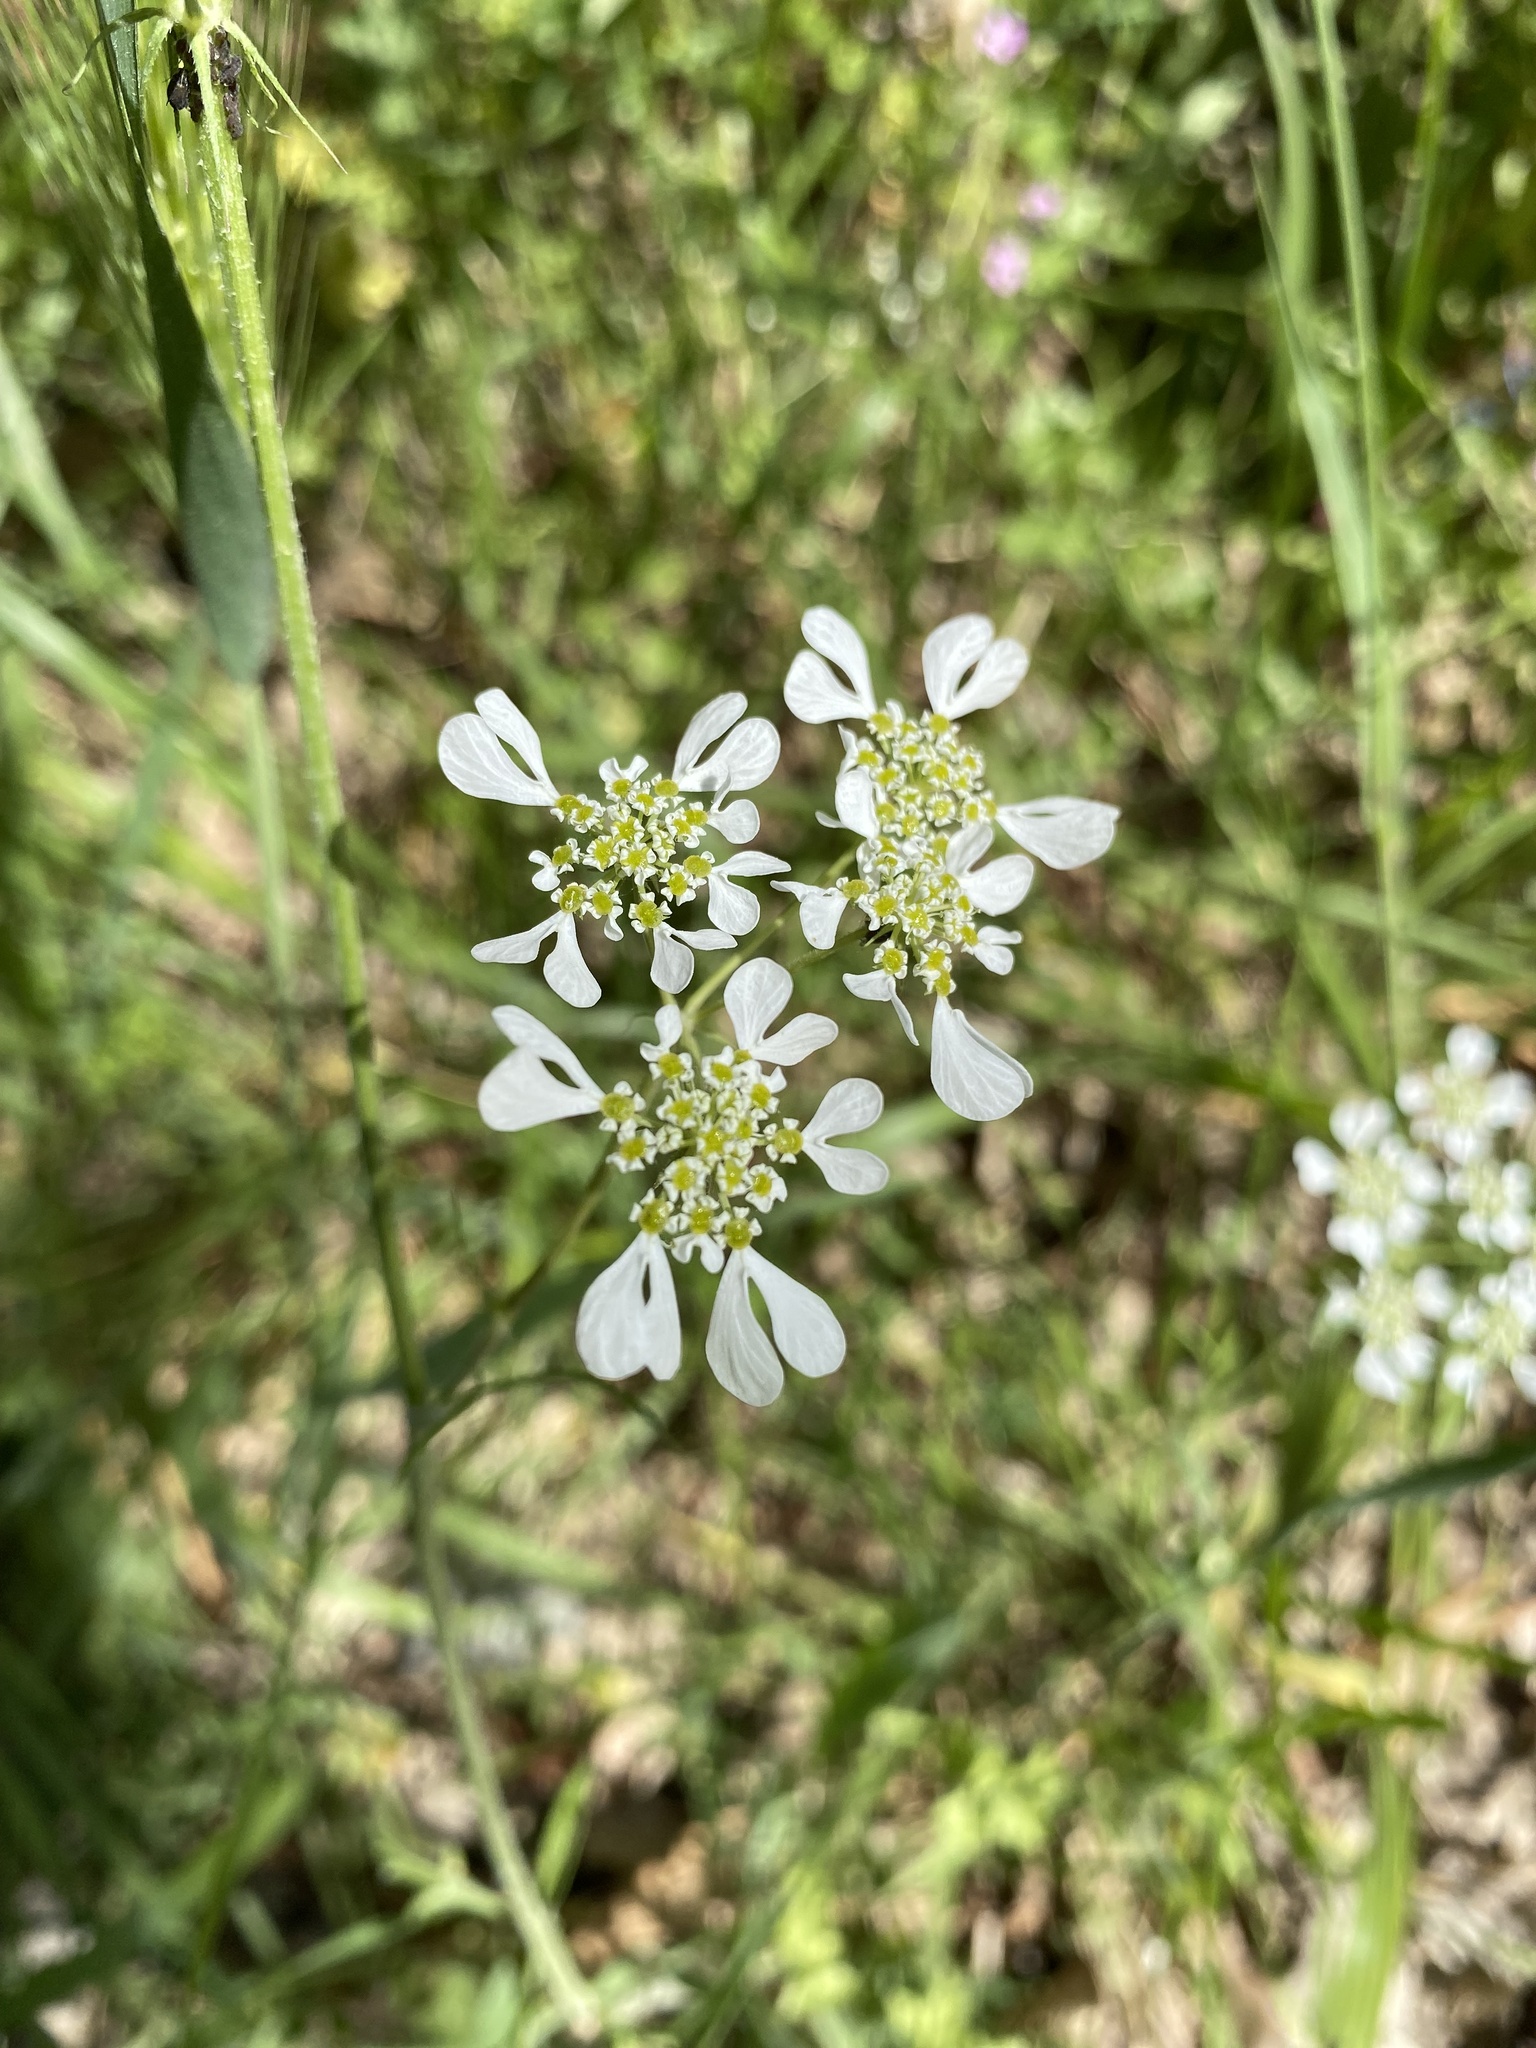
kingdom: Plantae
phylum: Tracheophyta
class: Magnoliopsida
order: Apiales
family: Apiaceae
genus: Tordylium
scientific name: Tordylium apulum
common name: Mediterranean hartwort
